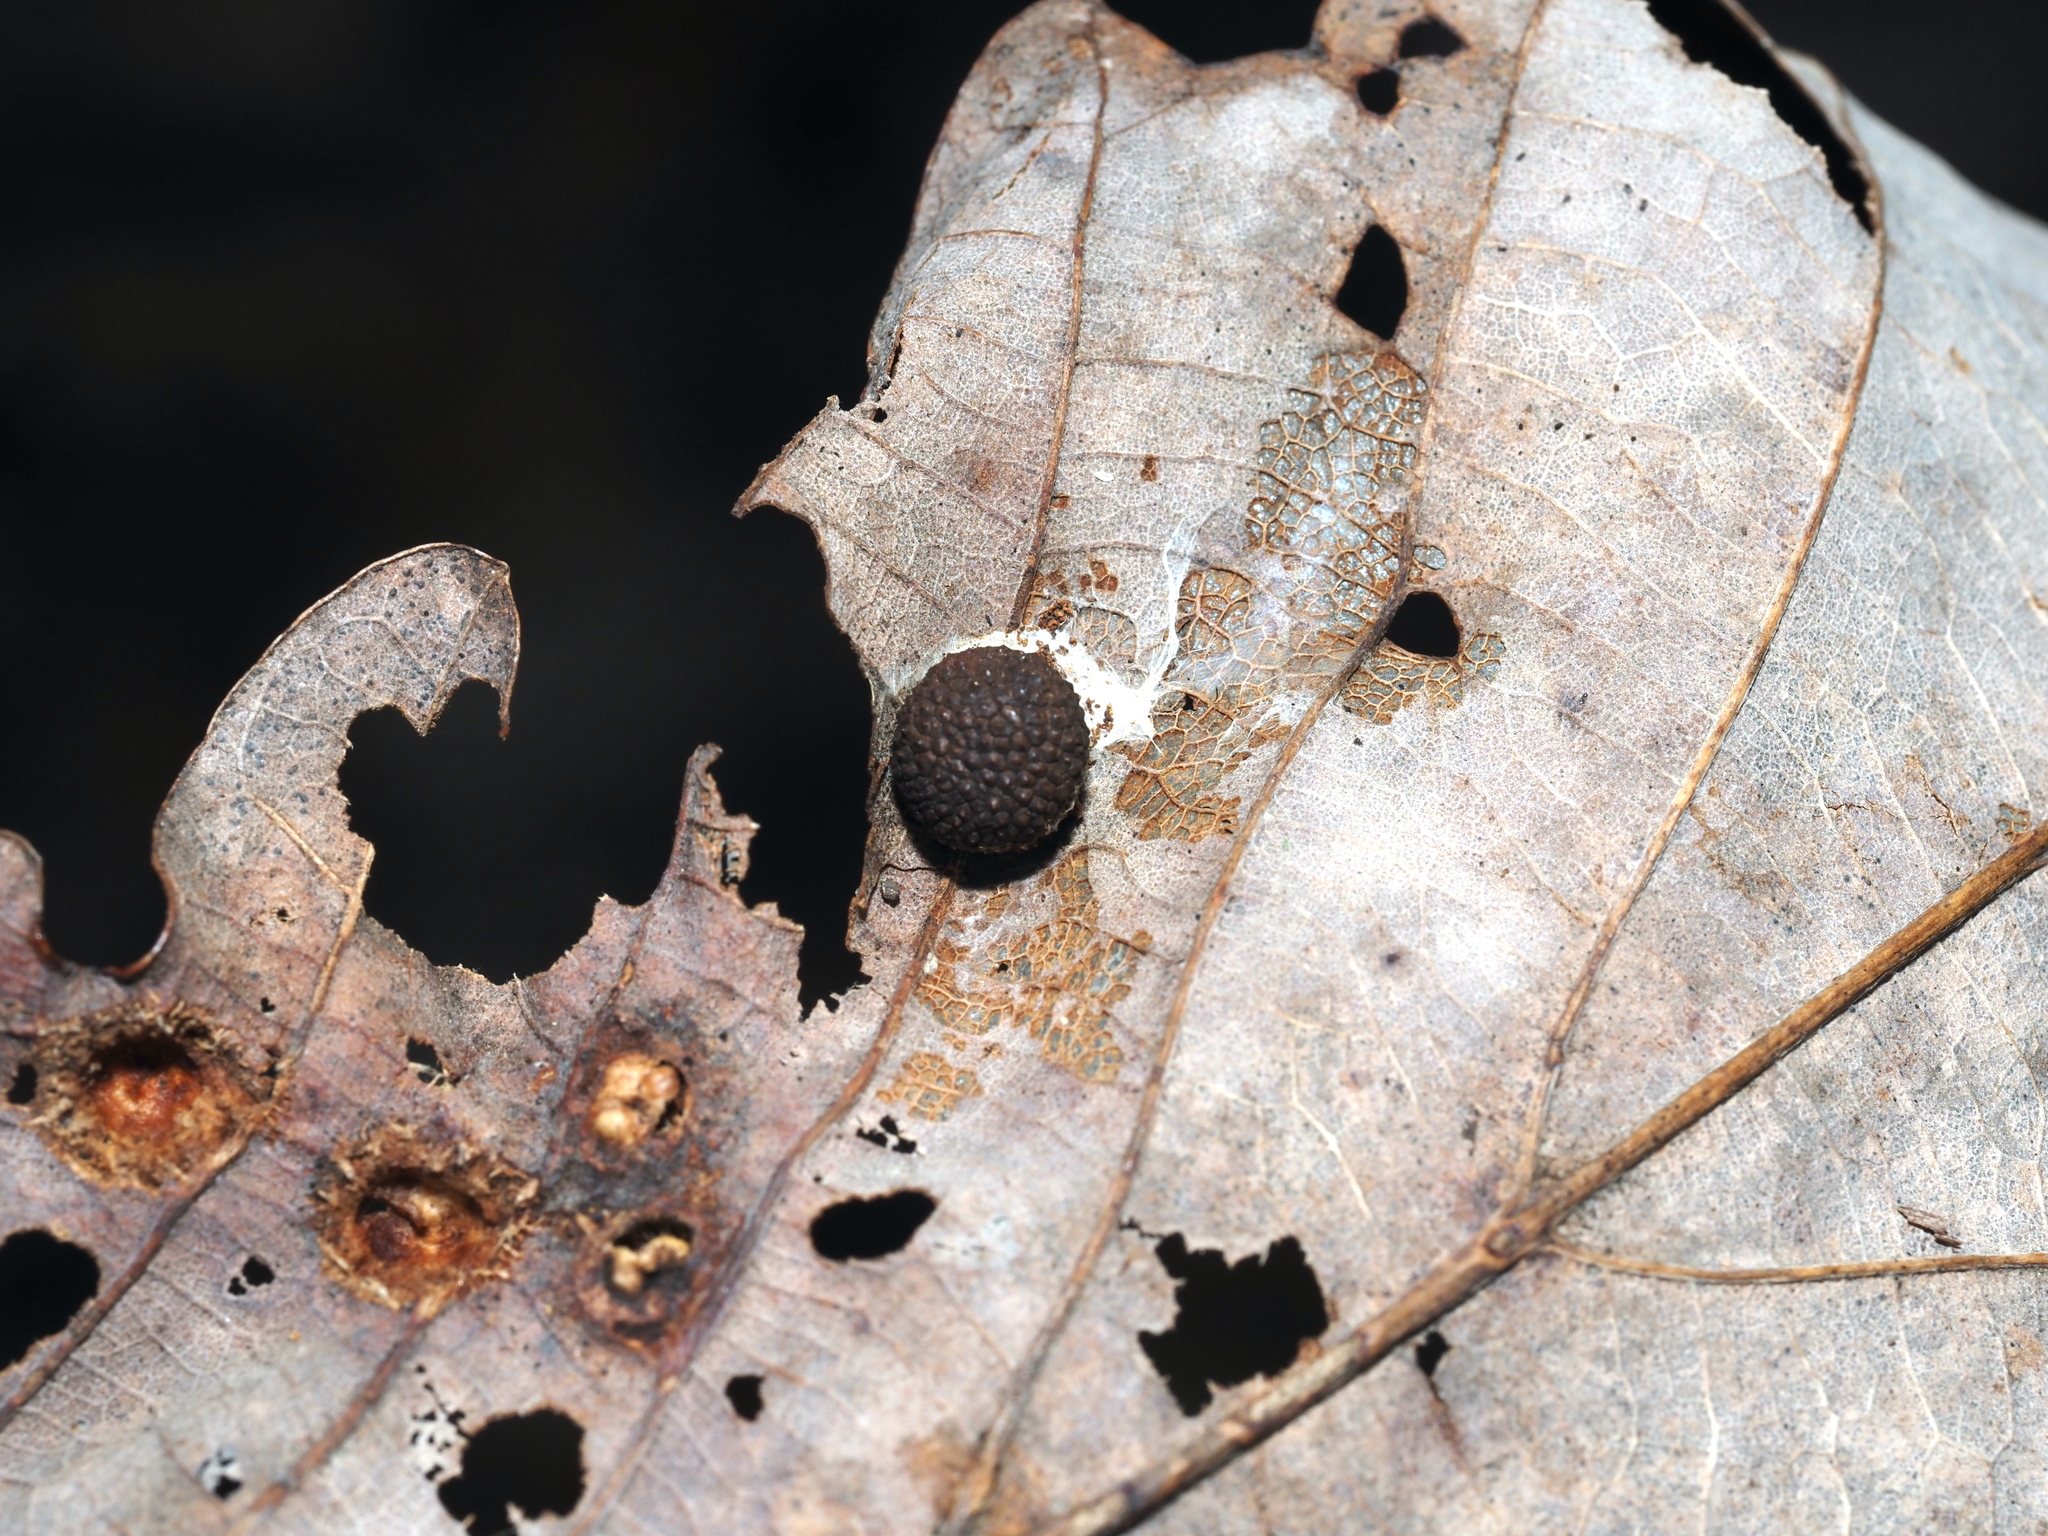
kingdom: Animalia
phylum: Arthropoda
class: Insecta
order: Hymenoptera
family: Cynipidae
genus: Acraspis
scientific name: Acraspis quercushirta
